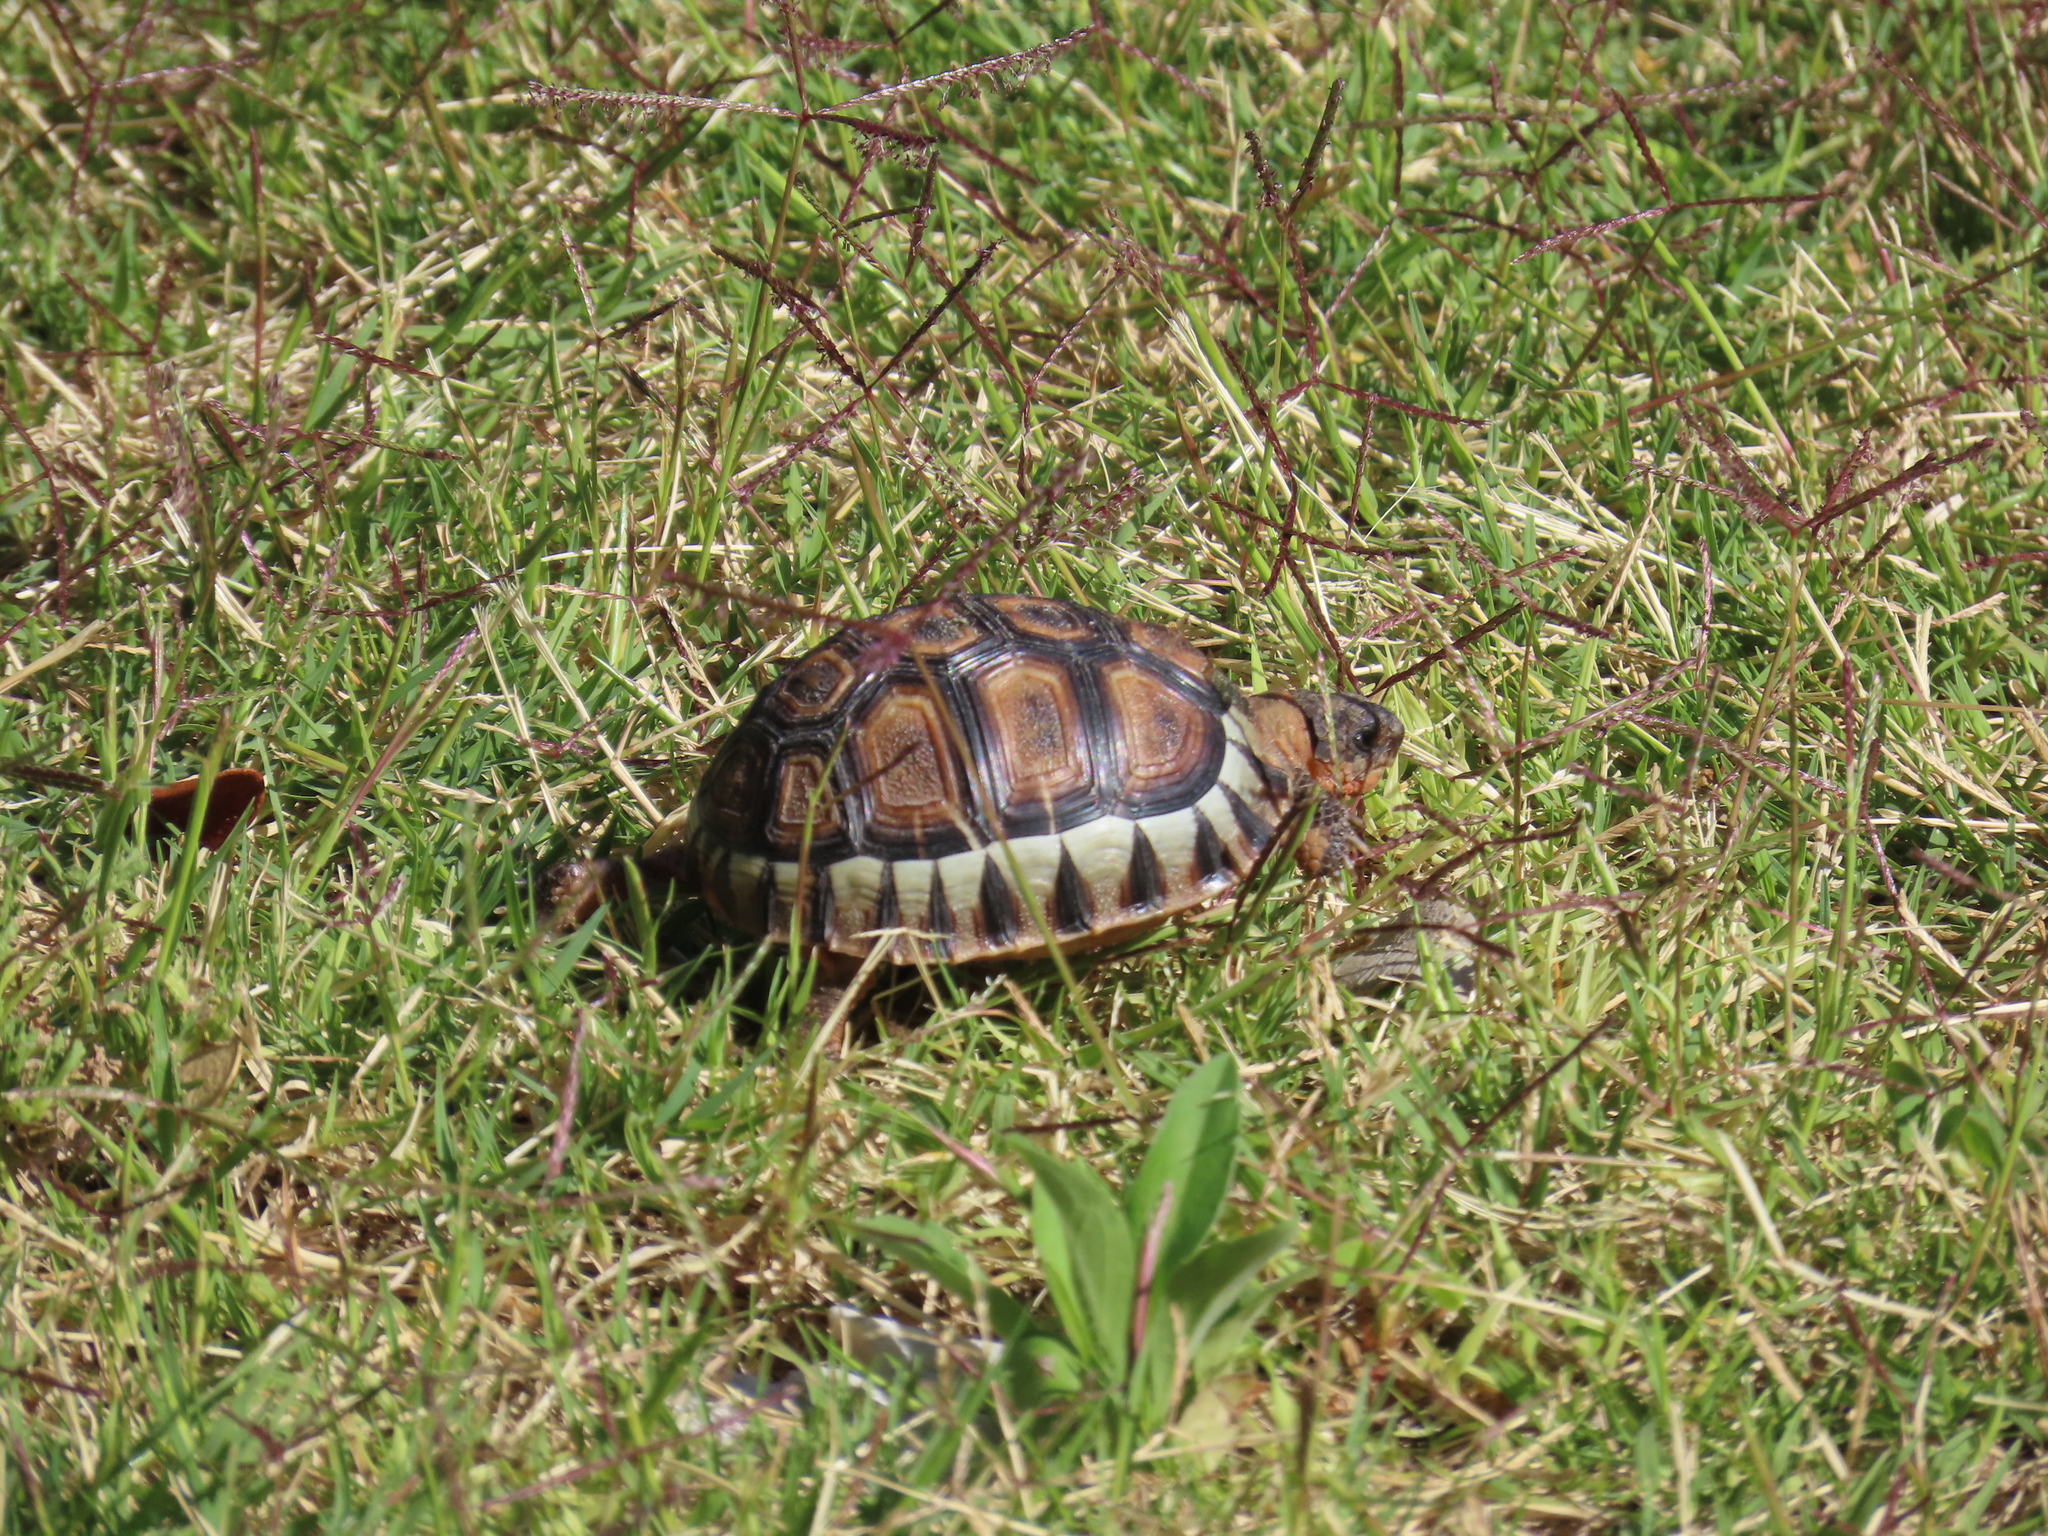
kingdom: Animalia
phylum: Chordata
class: Testudines
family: Testudinidae
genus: Chersina
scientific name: Chersina angulata
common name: South african bowsprit tortoise
